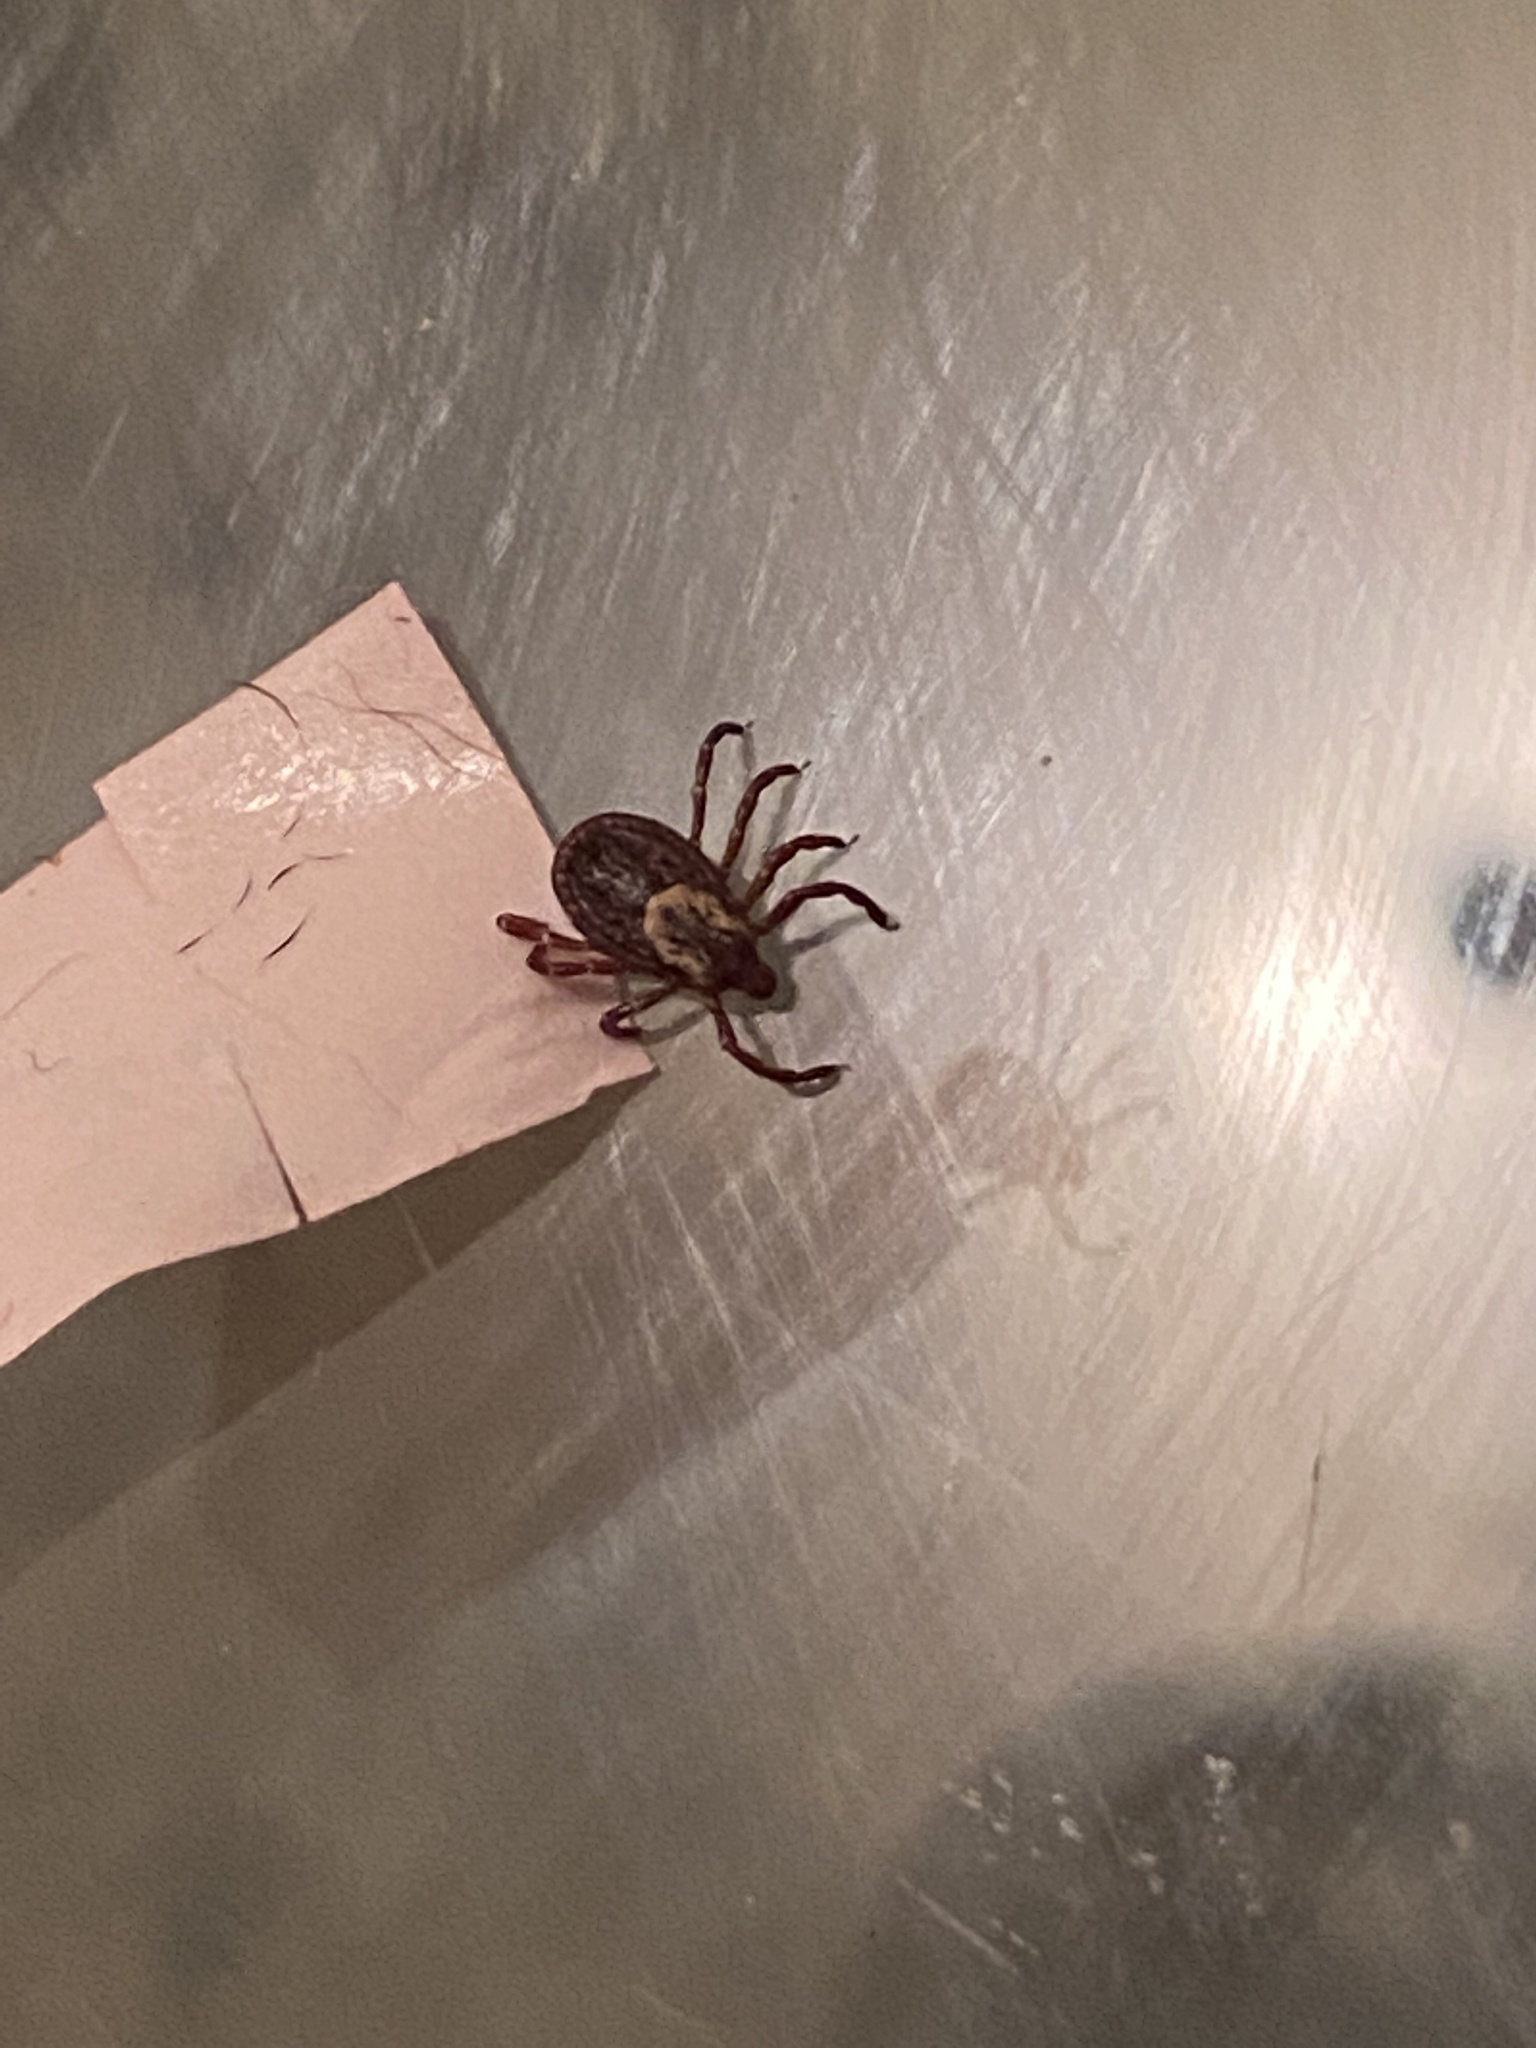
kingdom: Animalia
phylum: Arthropoda
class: Arachnida
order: Ixodida
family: Ixodidae
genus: Dermacentor
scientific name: Dermacentor variabilis
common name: American dog tick
